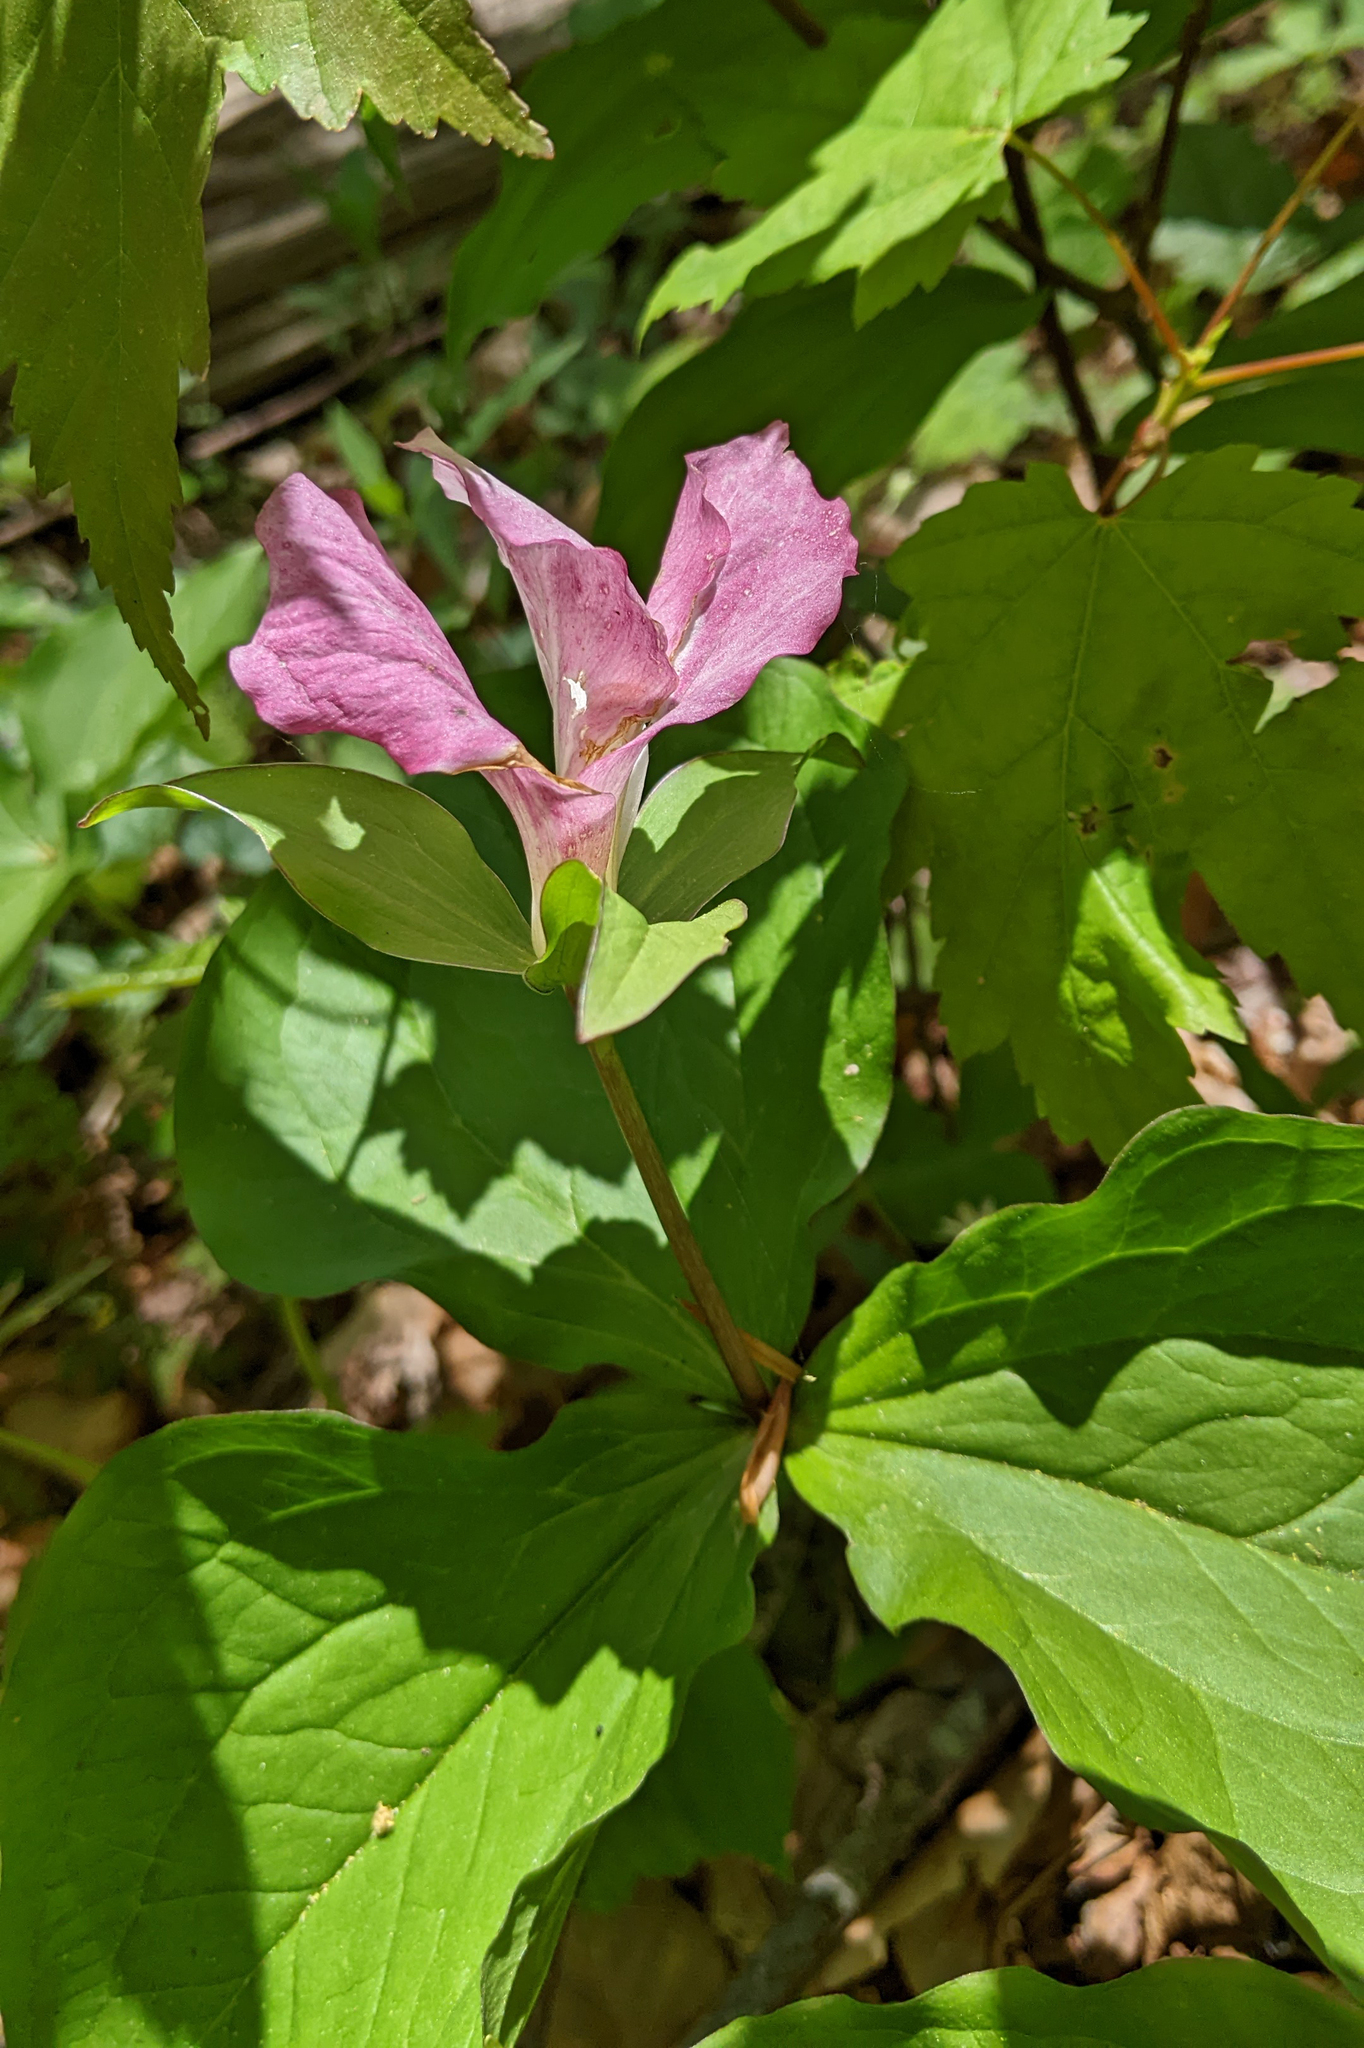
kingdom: Plantae
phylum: Tracheophyta
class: Liliopsida
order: Liliales
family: Melanthiaceae
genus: Trillium
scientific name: Trillium grandiflorum
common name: Great white trillium
